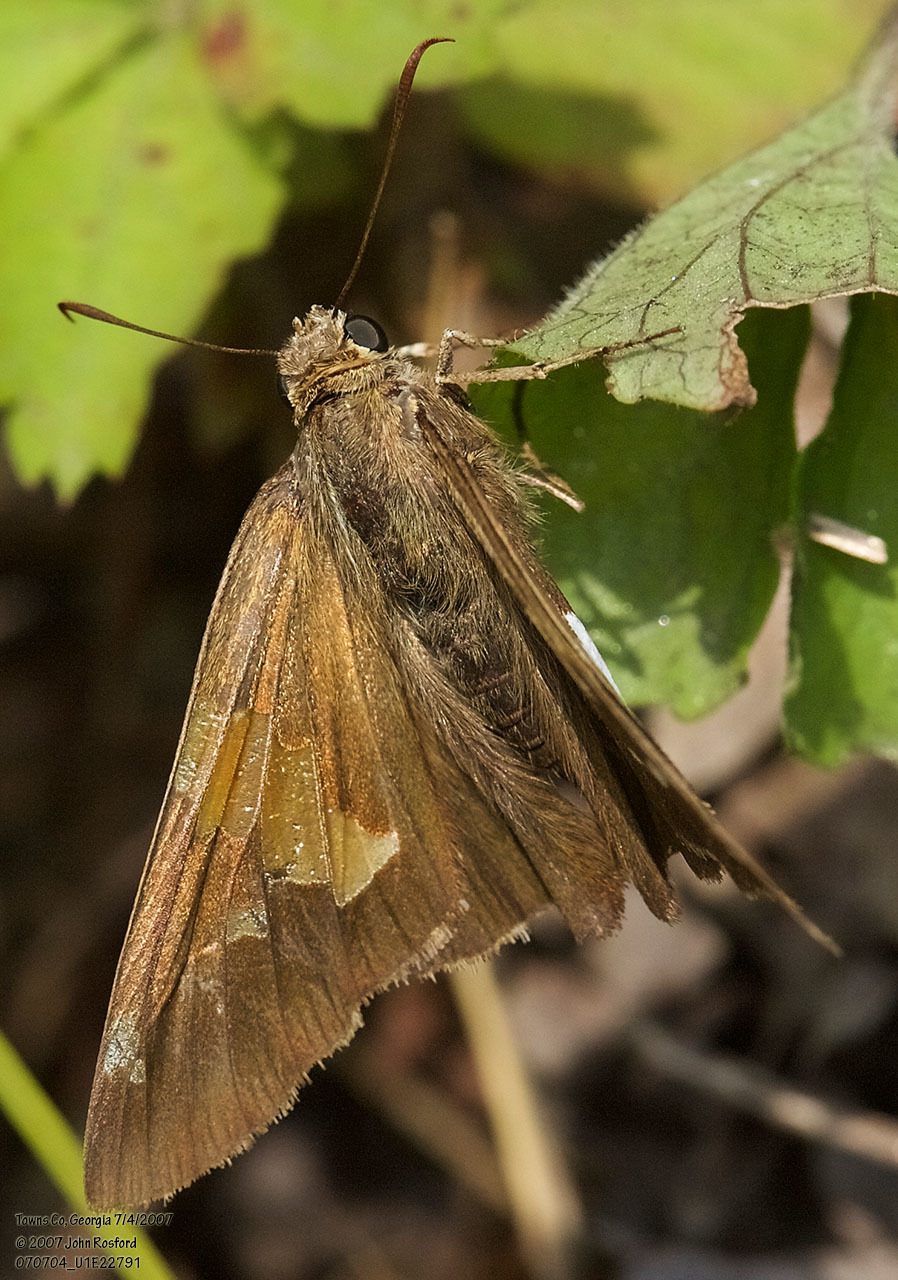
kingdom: Animalia
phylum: Arthropoda
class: Insecta
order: Lepidoptera
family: Hesperiidae
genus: Epargyreus
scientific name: Epargyreus clarus
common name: Silver-spotted skipper
